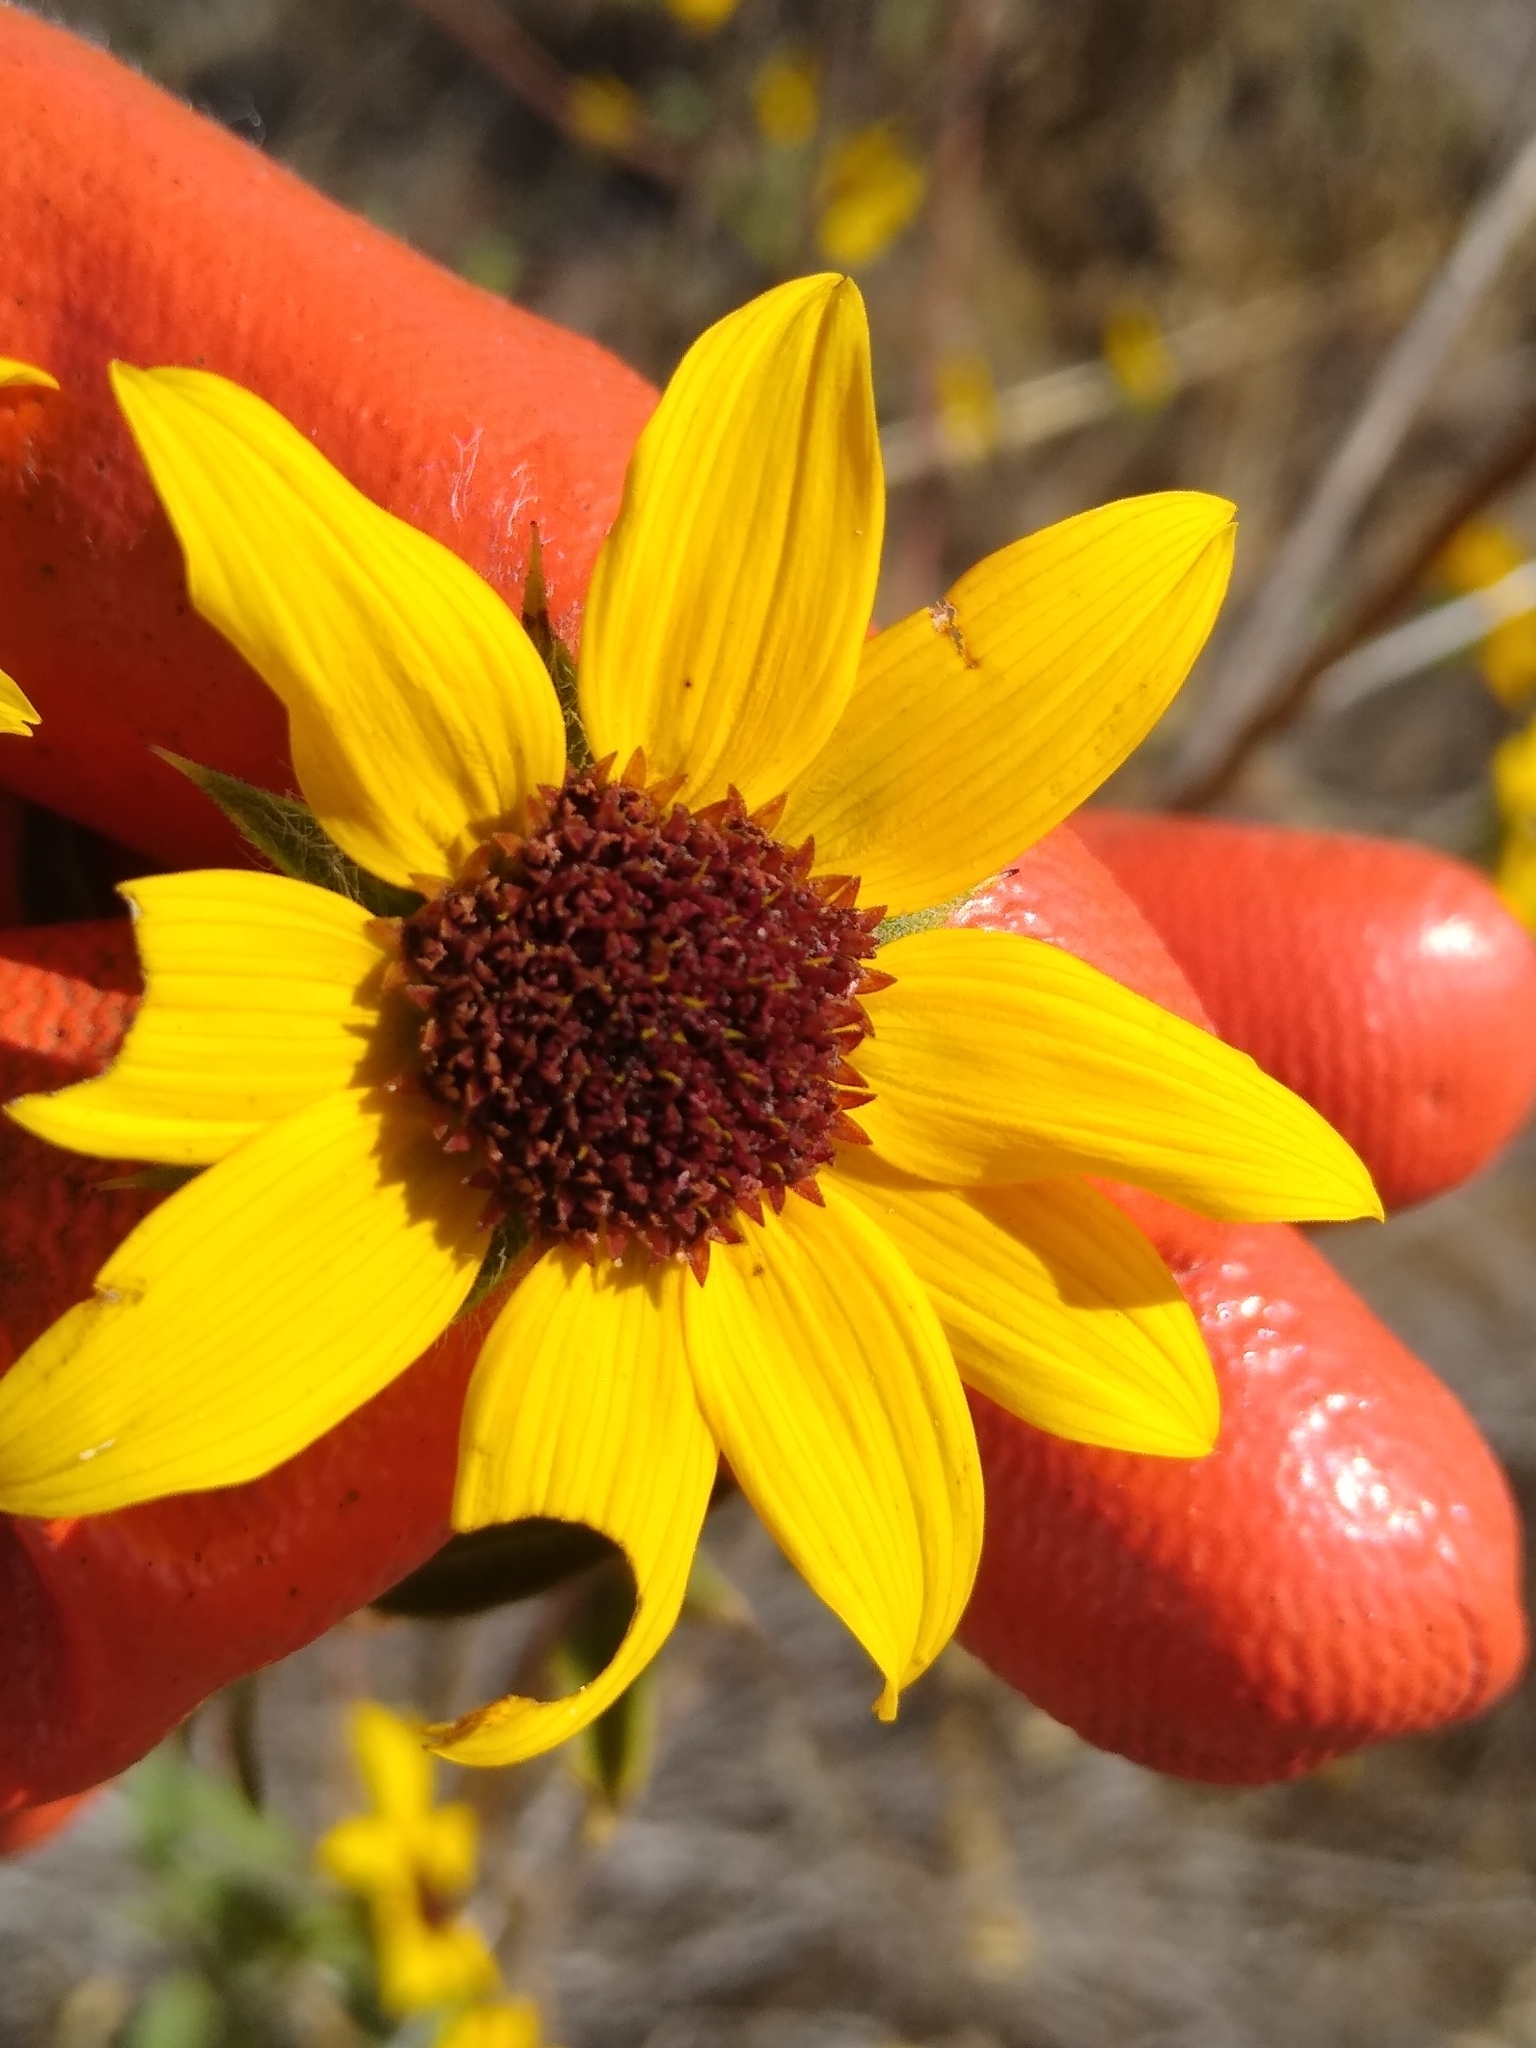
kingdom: Plantae
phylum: Tracheophyta
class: Magnoliopsida
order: Asterales
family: Asteraceae
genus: Helianthus
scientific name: Helianthus exilis
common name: Serpentine sunflower
